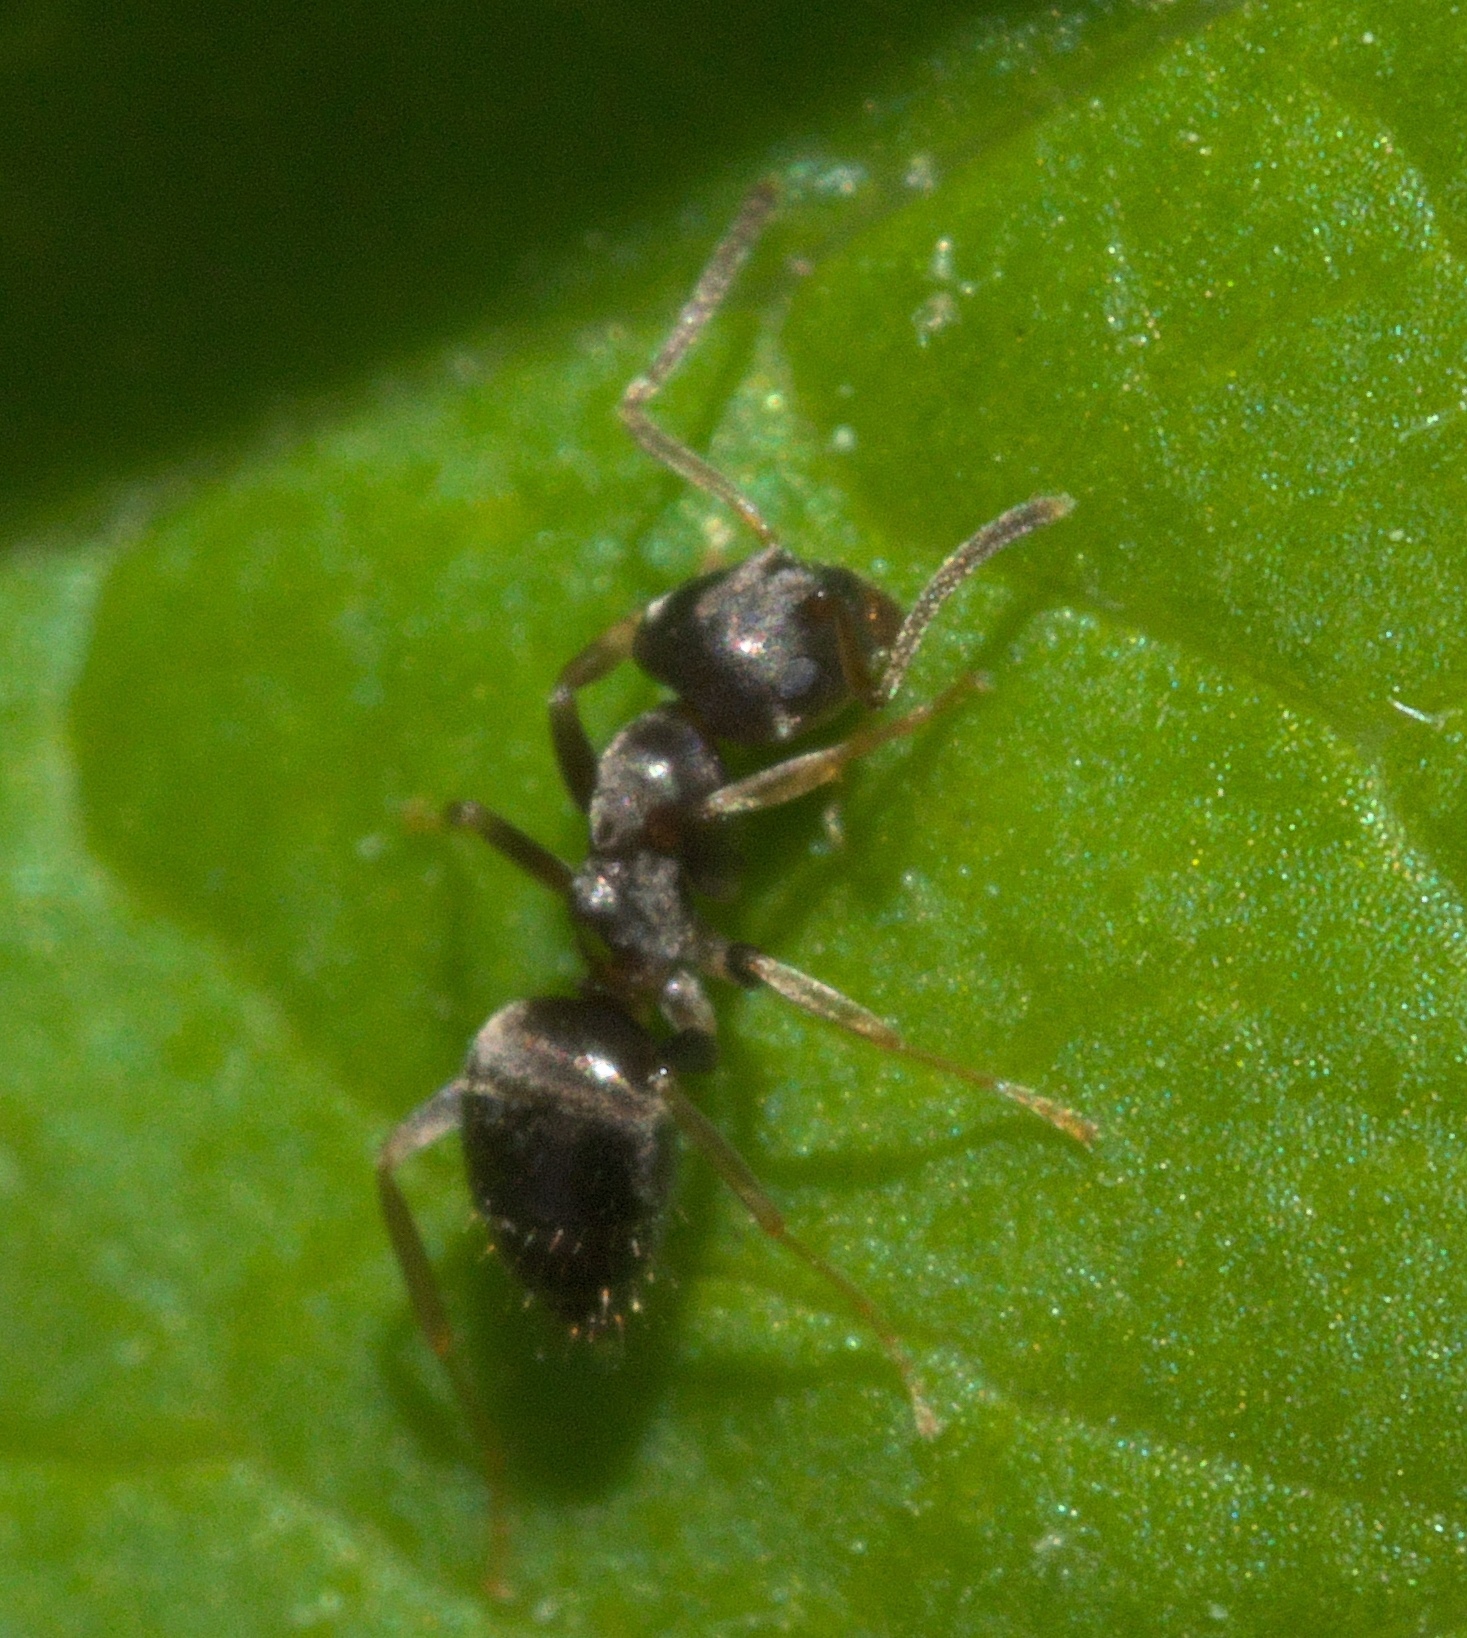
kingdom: Animalia
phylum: Arthropoda
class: Insecta
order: Hymenoptera
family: Formicidae
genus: Lasius
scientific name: Lasius americanus
